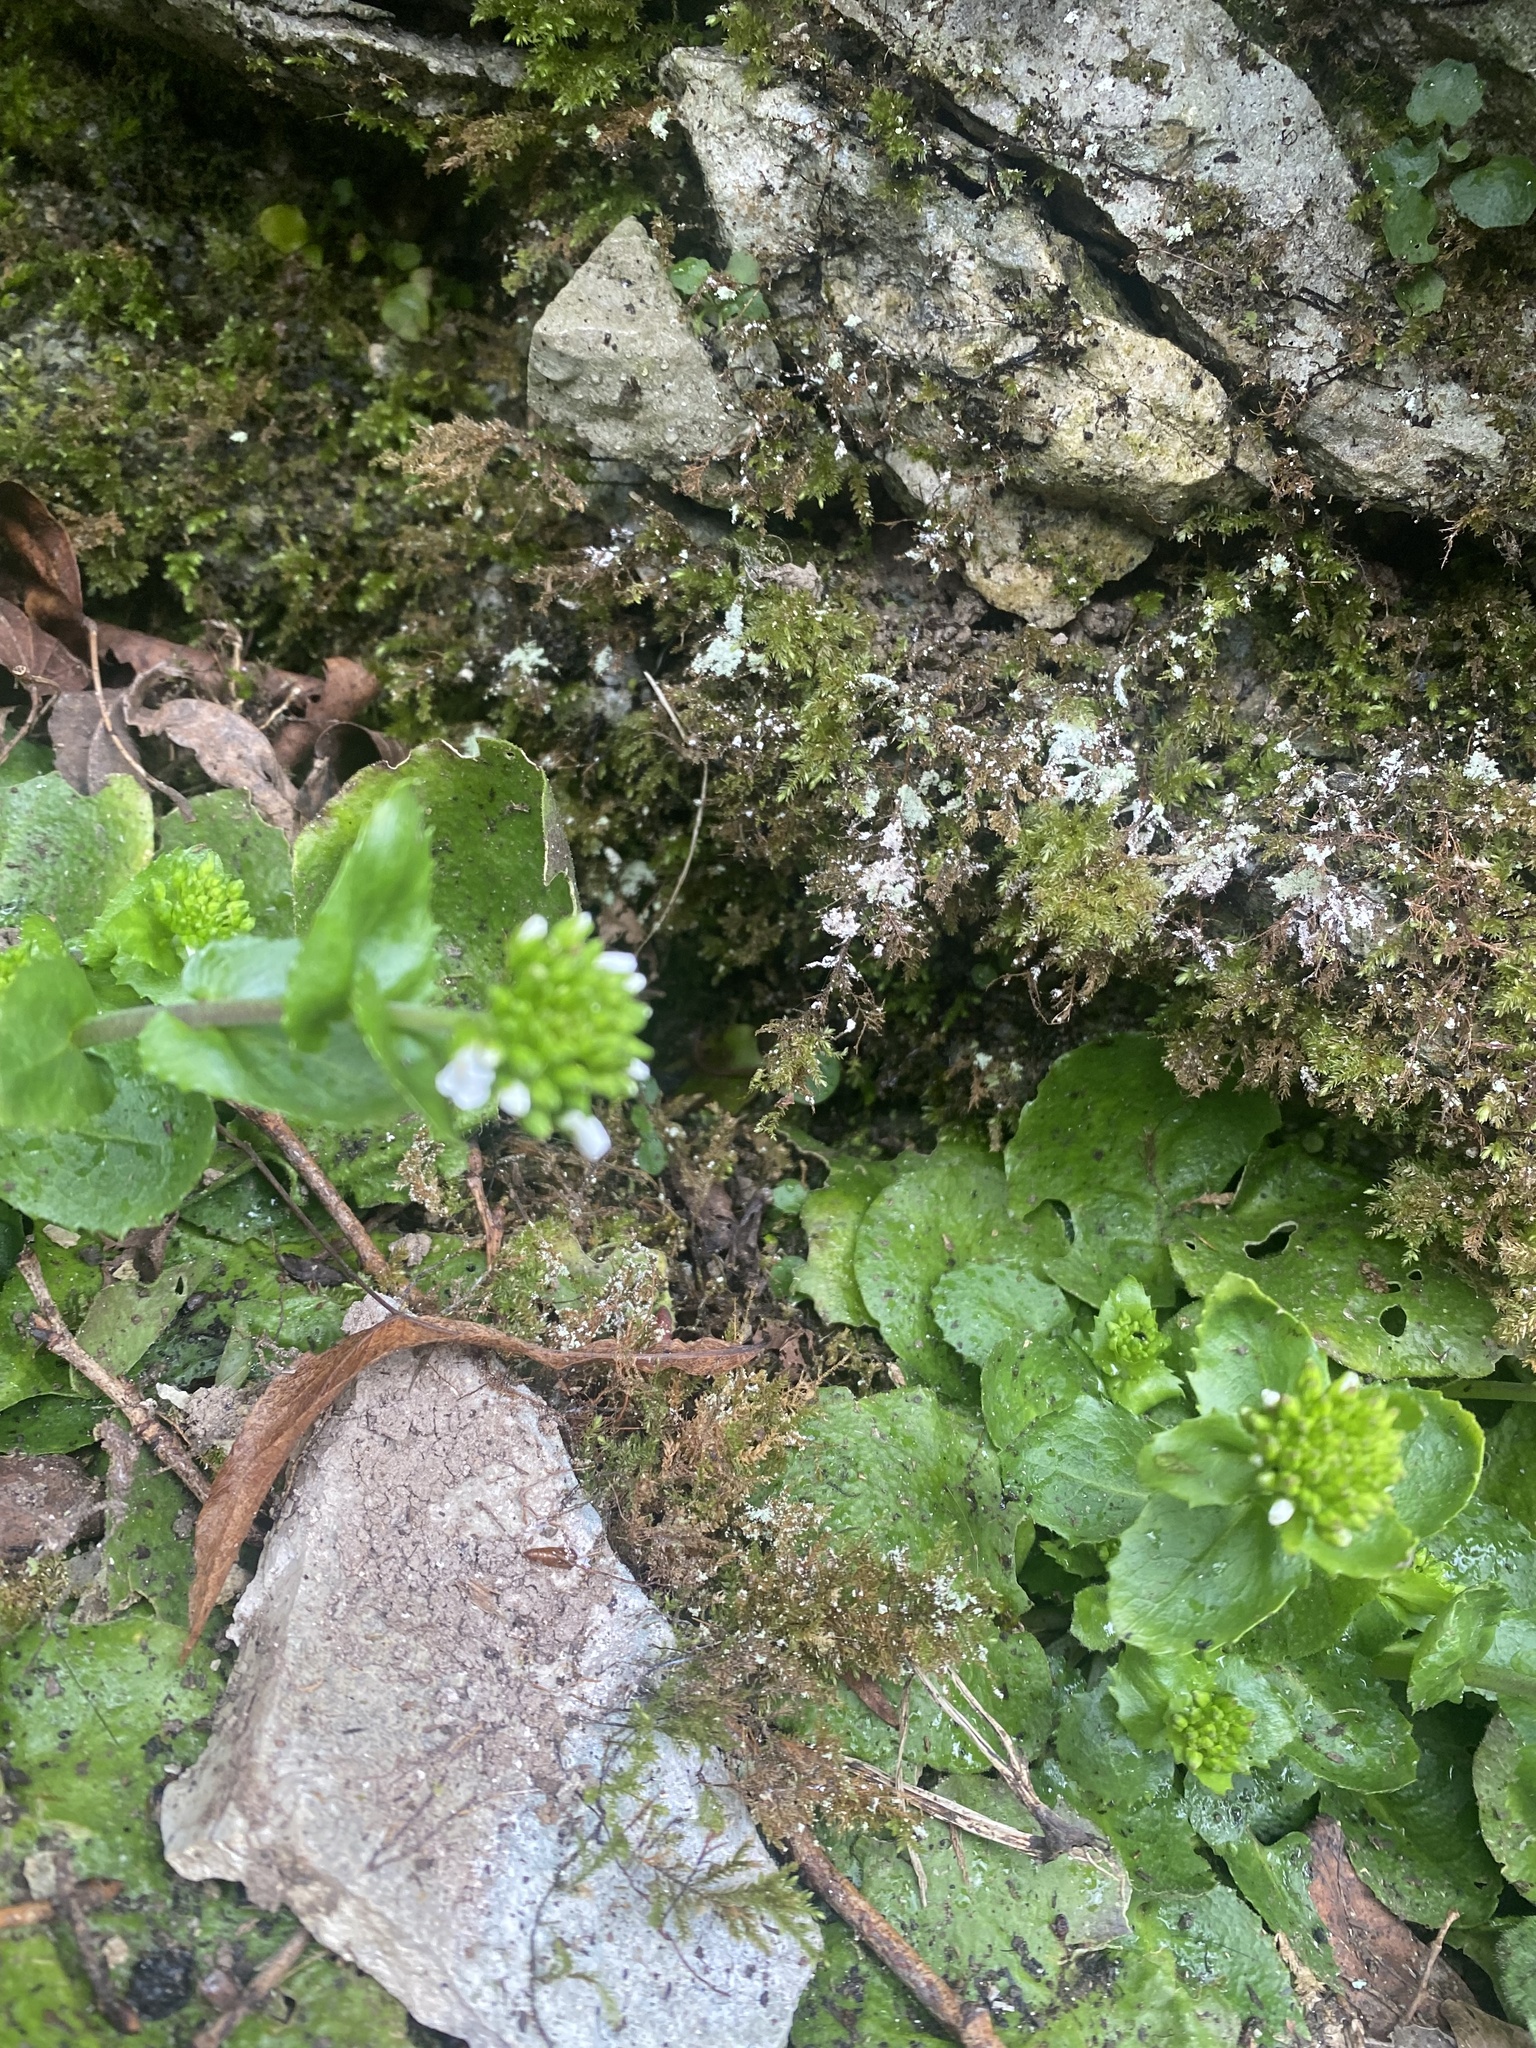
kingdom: Plantae
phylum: Tracheophyta
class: Magnoliopsida
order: Brassicales
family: Brassicaceae
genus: Arabis
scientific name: Arabis nordmanniana
